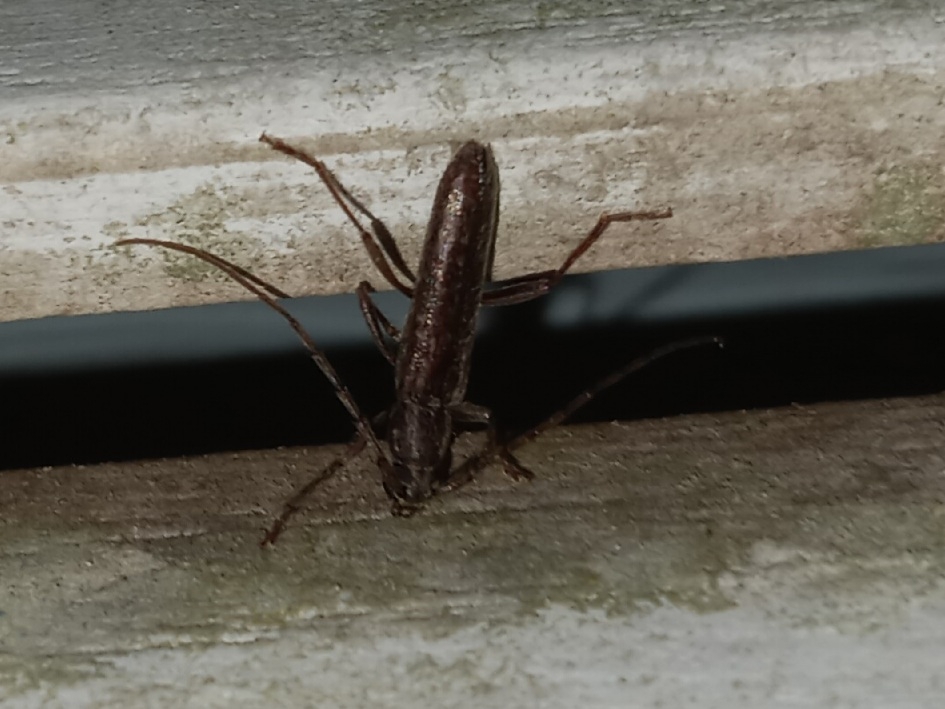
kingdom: Animalia
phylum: Arthropoda
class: Insecta
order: Coleoptera
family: Cerambycidae
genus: Anelaphus
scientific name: Anelaphus villosus
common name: Twig pruner
